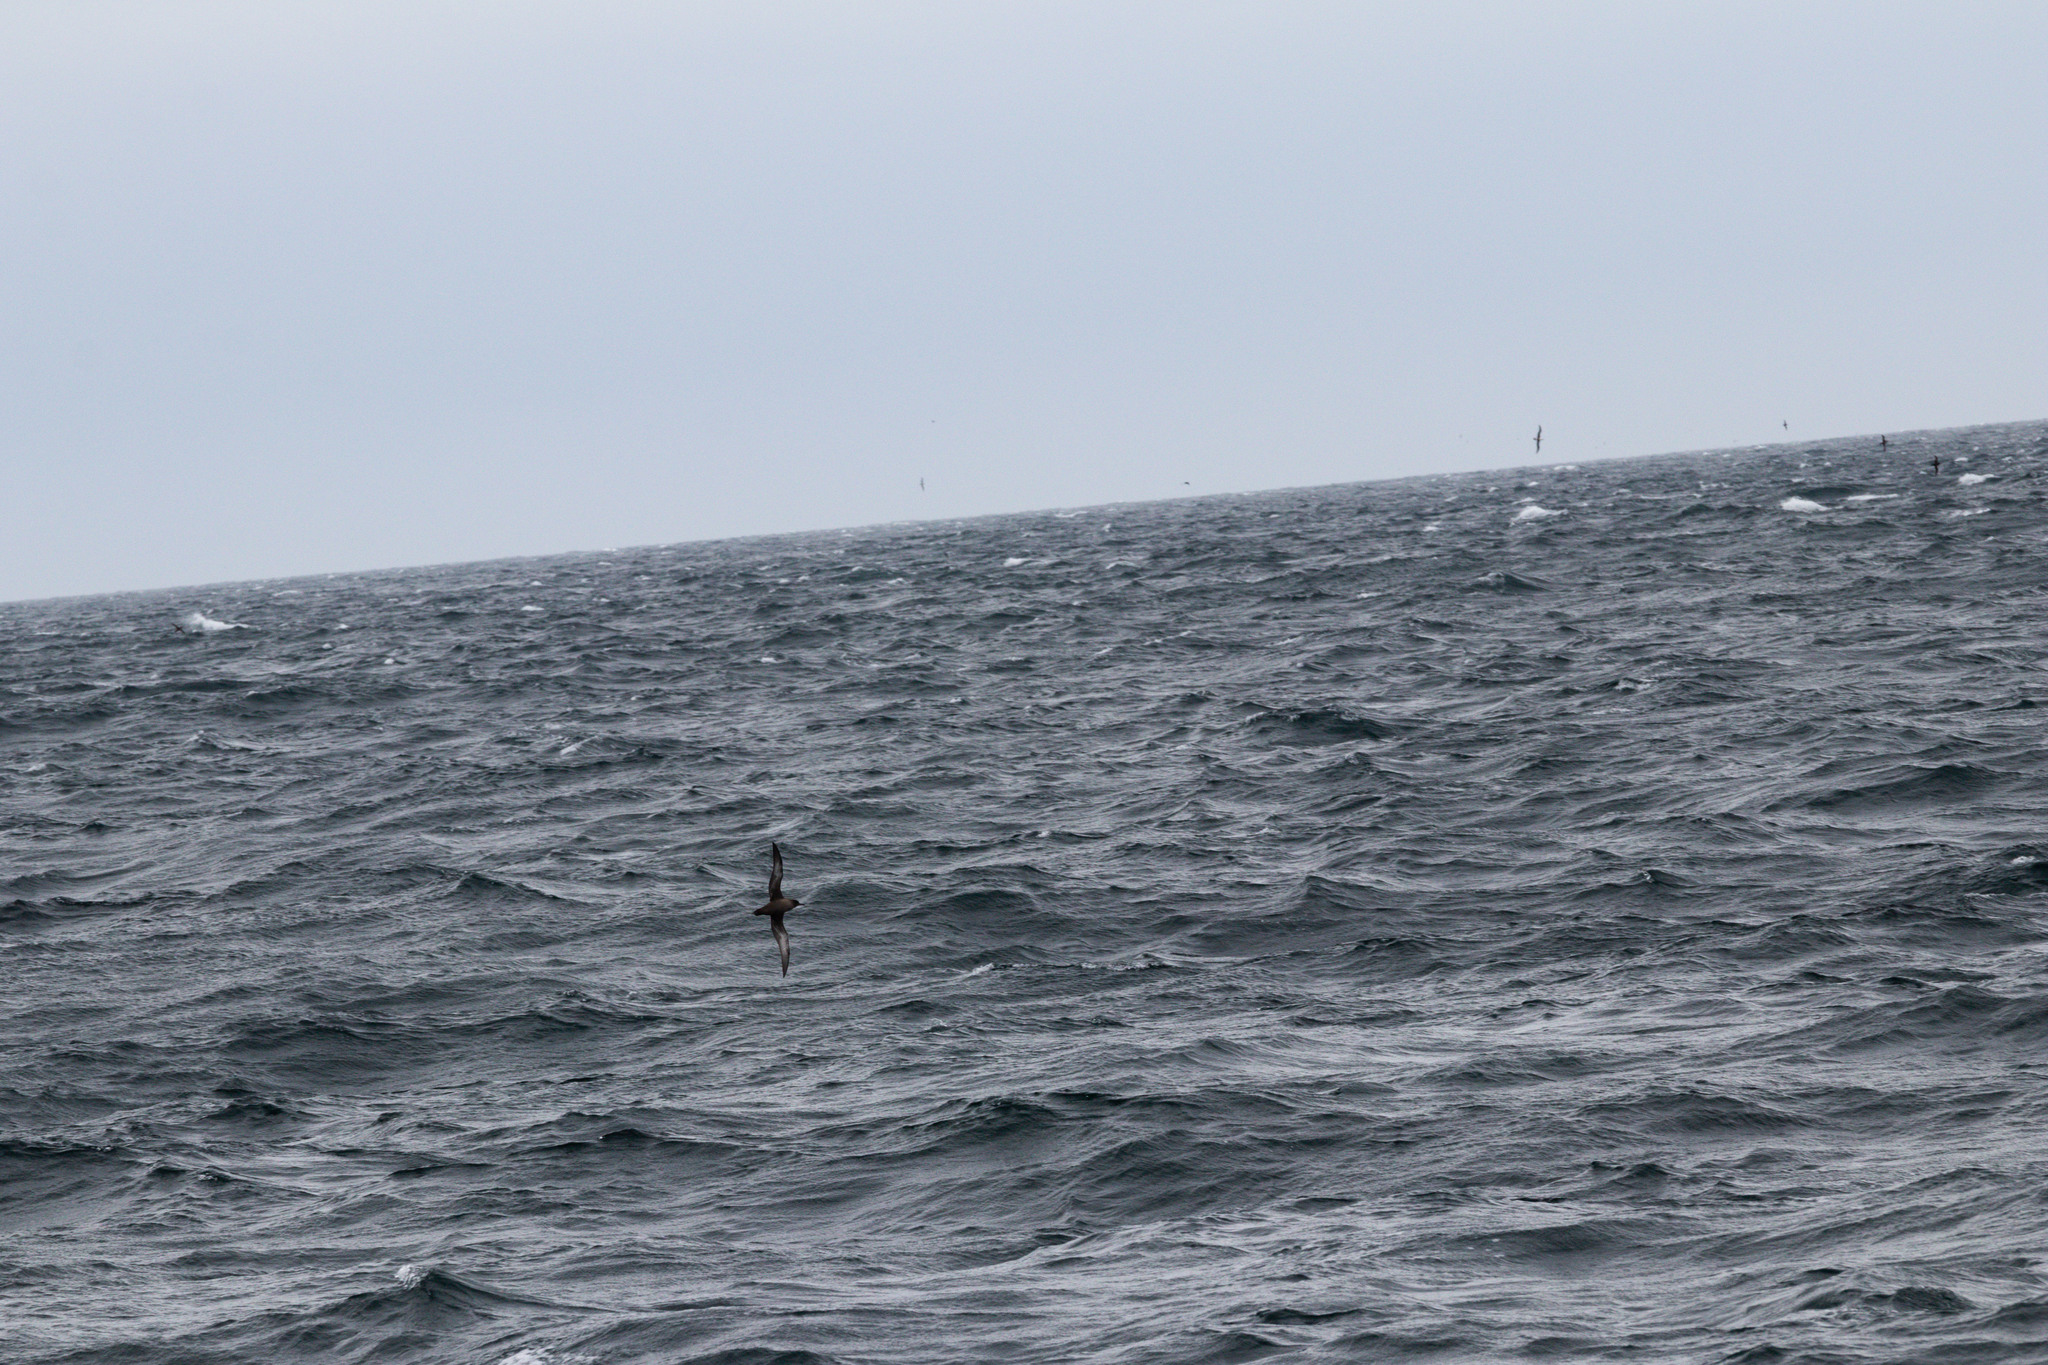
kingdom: Animalia
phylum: Chordata
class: Aves
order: Procellariiformes
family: Procellariidae
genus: Puffinus
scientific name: Puffinus griseus
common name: Sooty shearwater
